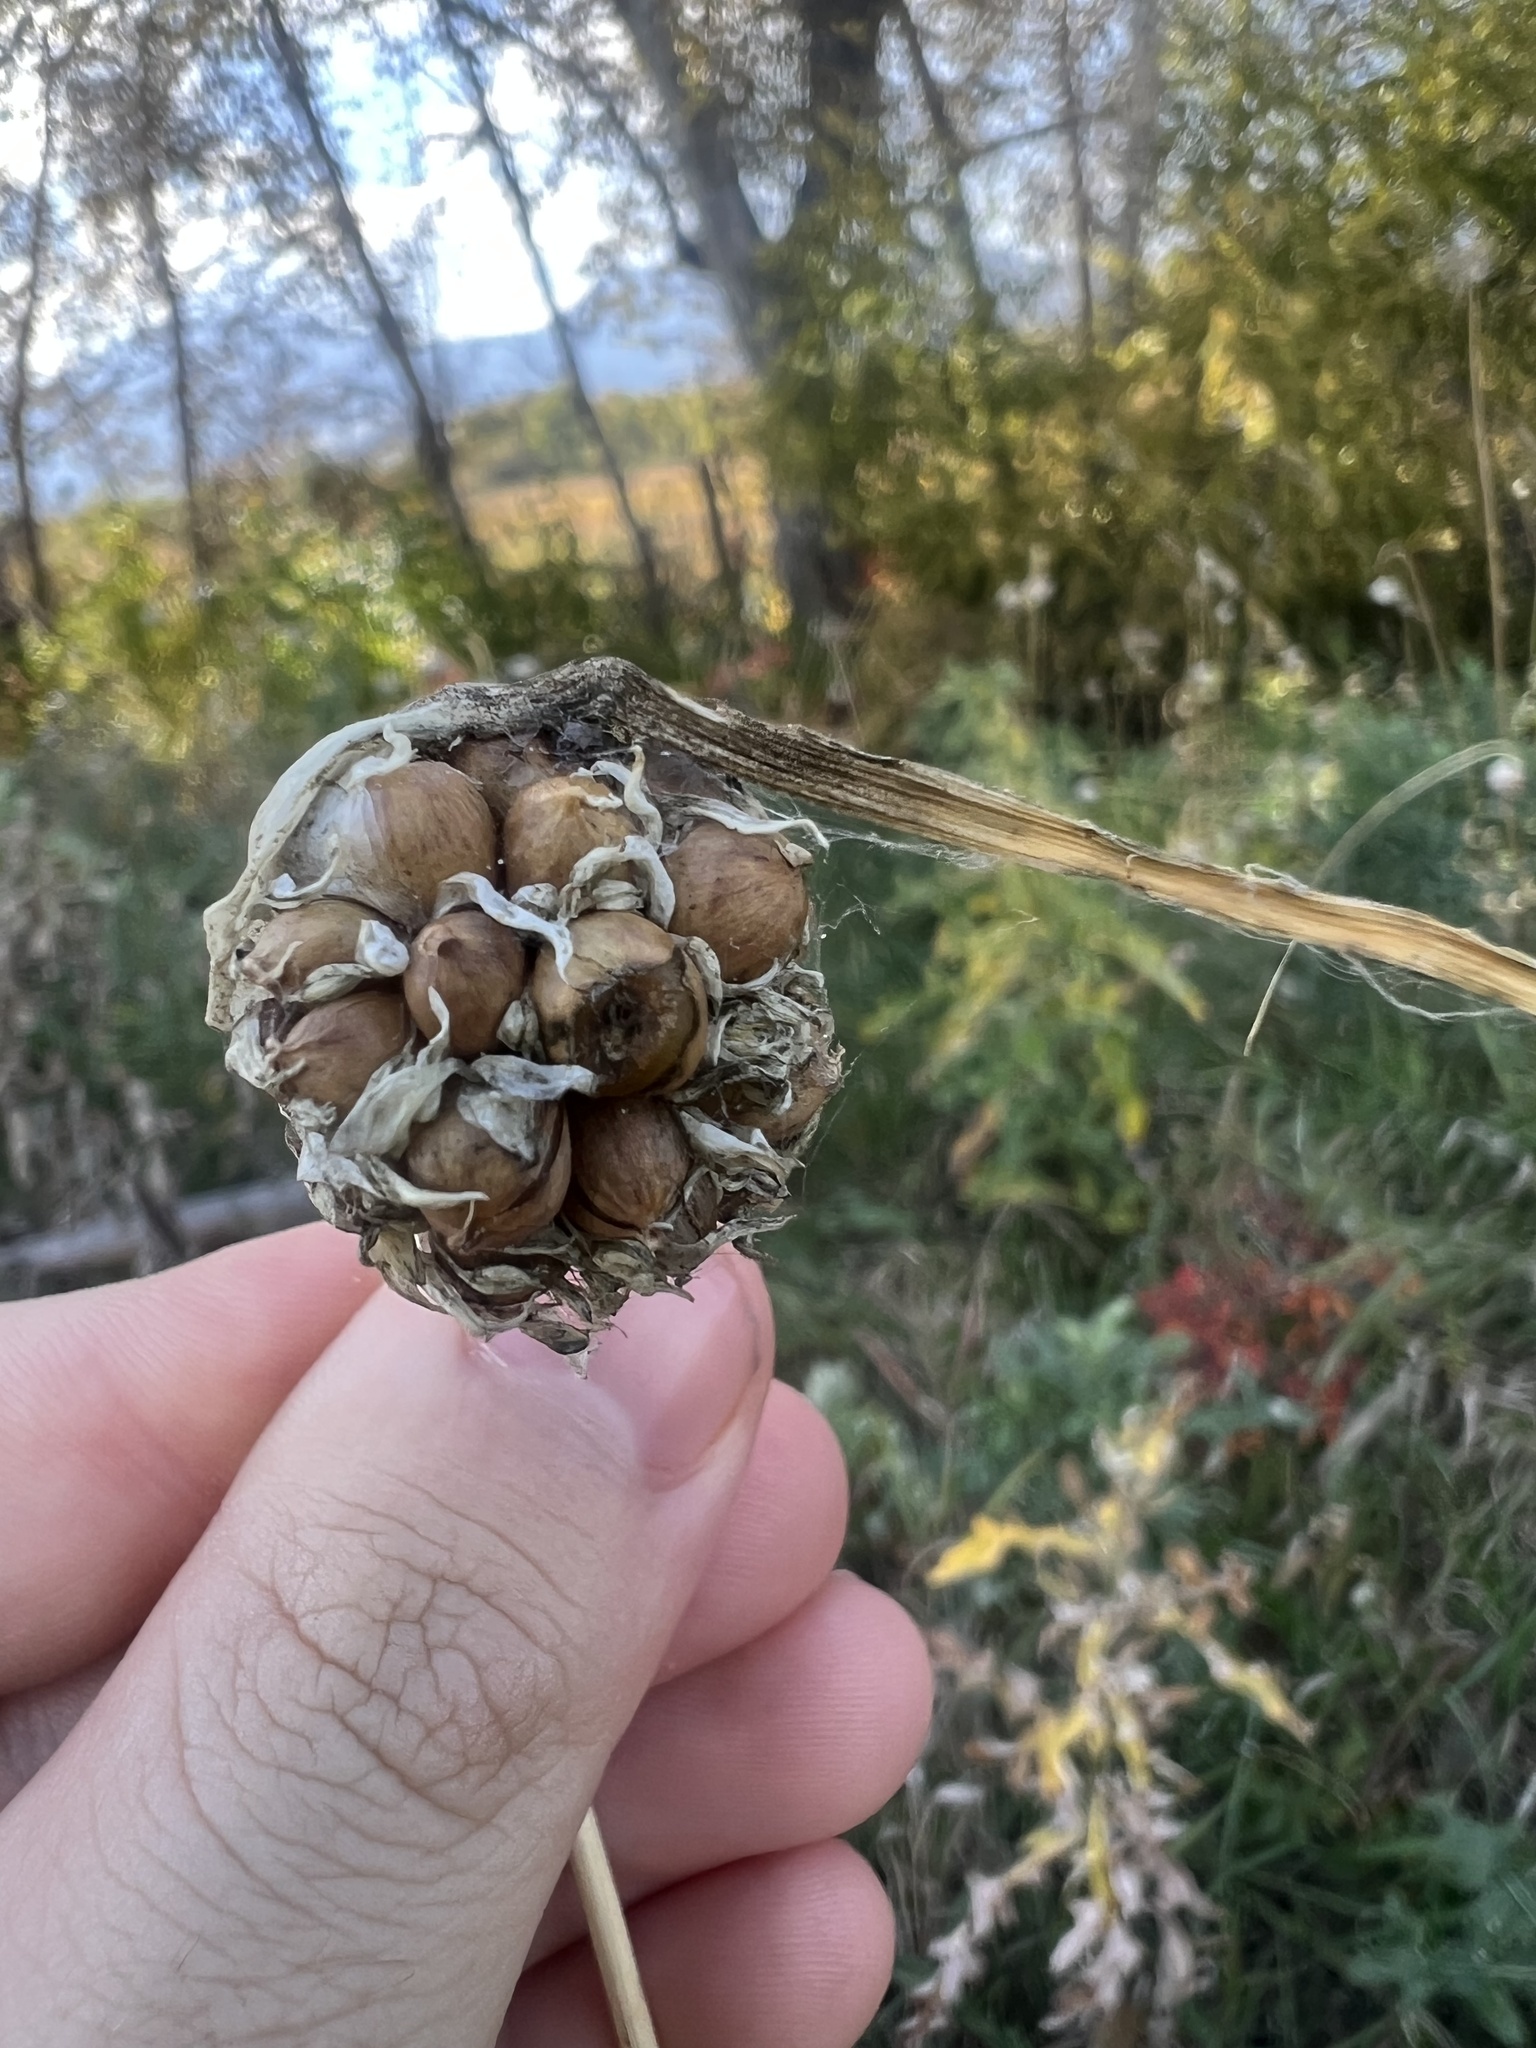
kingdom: Plantae
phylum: Tracheophyta
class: Liliopsida
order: Asparagales
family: Amaryllidaceae
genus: Allium
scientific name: Allium sativum
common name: Garlic
